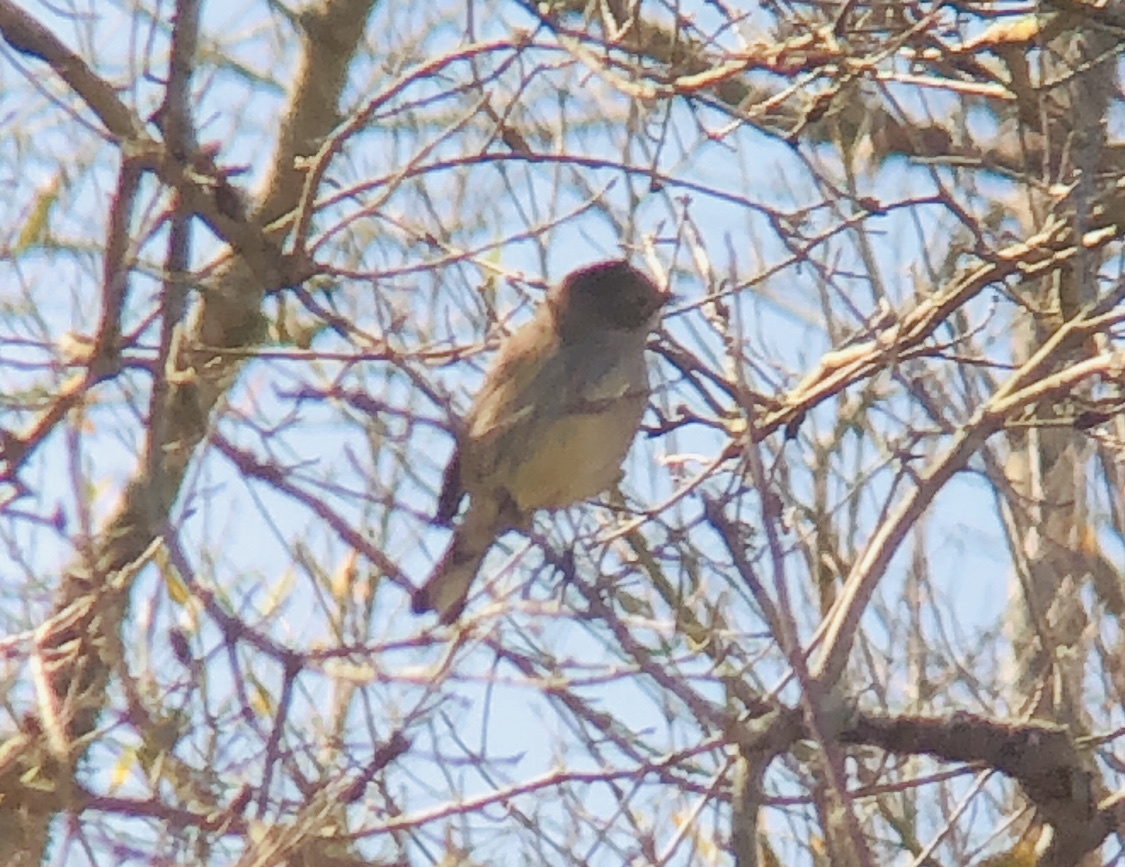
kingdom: Animalia
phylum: Chordata
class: Aves
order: Passeriformes
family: Parulidae
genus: Setophaga
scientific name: Setophaga coronata
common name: Myrtle warbler
